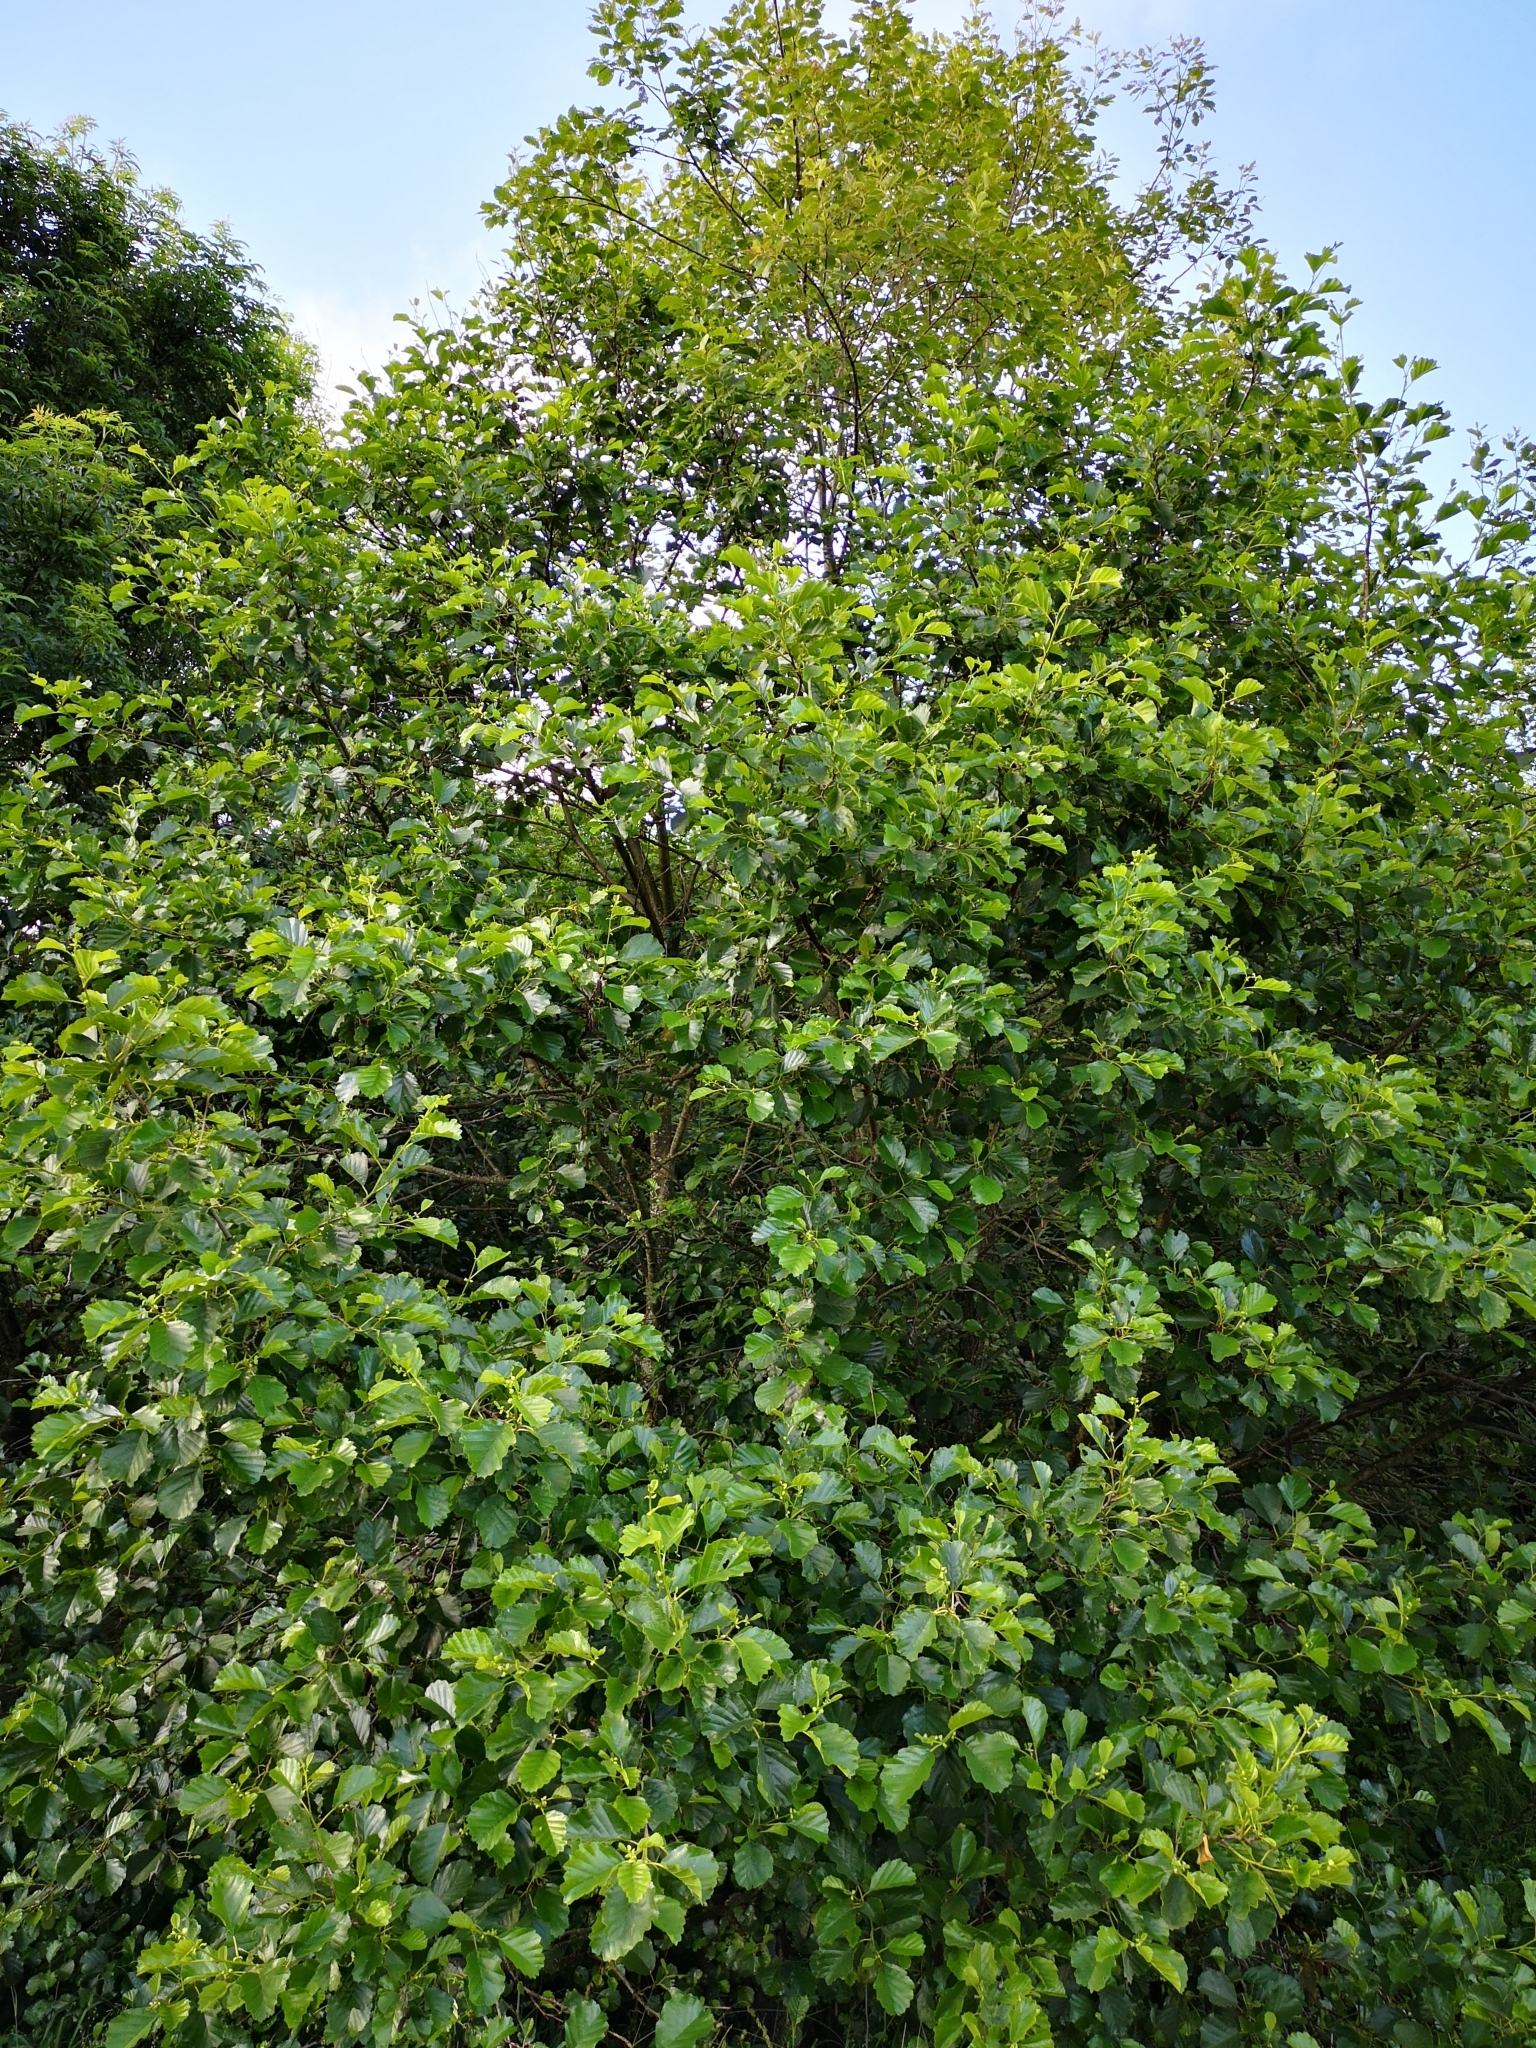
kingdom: Plantae
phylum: Tracheophyta
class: Magnoliopsida
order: Fagales
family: Betulaceae
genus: Alnus
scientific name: Alnus glutinosa
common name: Black alder
